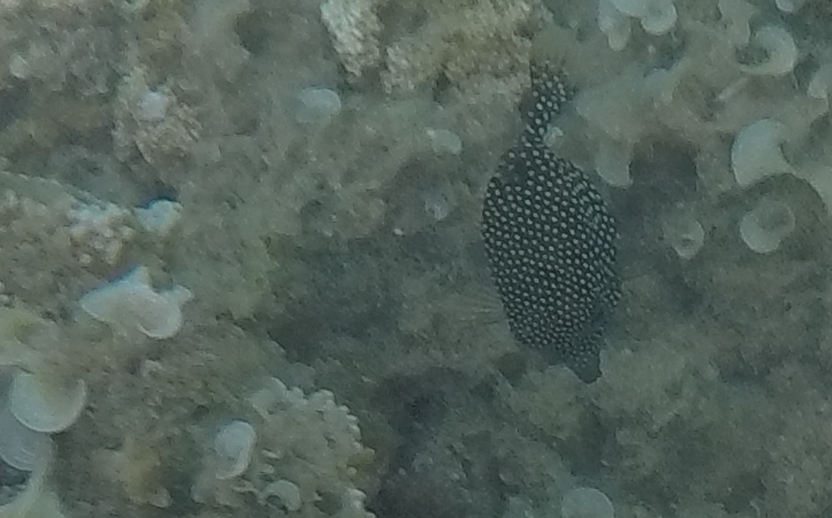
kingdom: Animalia
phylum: Chordata
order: Tetraodontiformes
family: Ostraciidae
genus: Ostracion
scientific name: Ostracion meleagris
